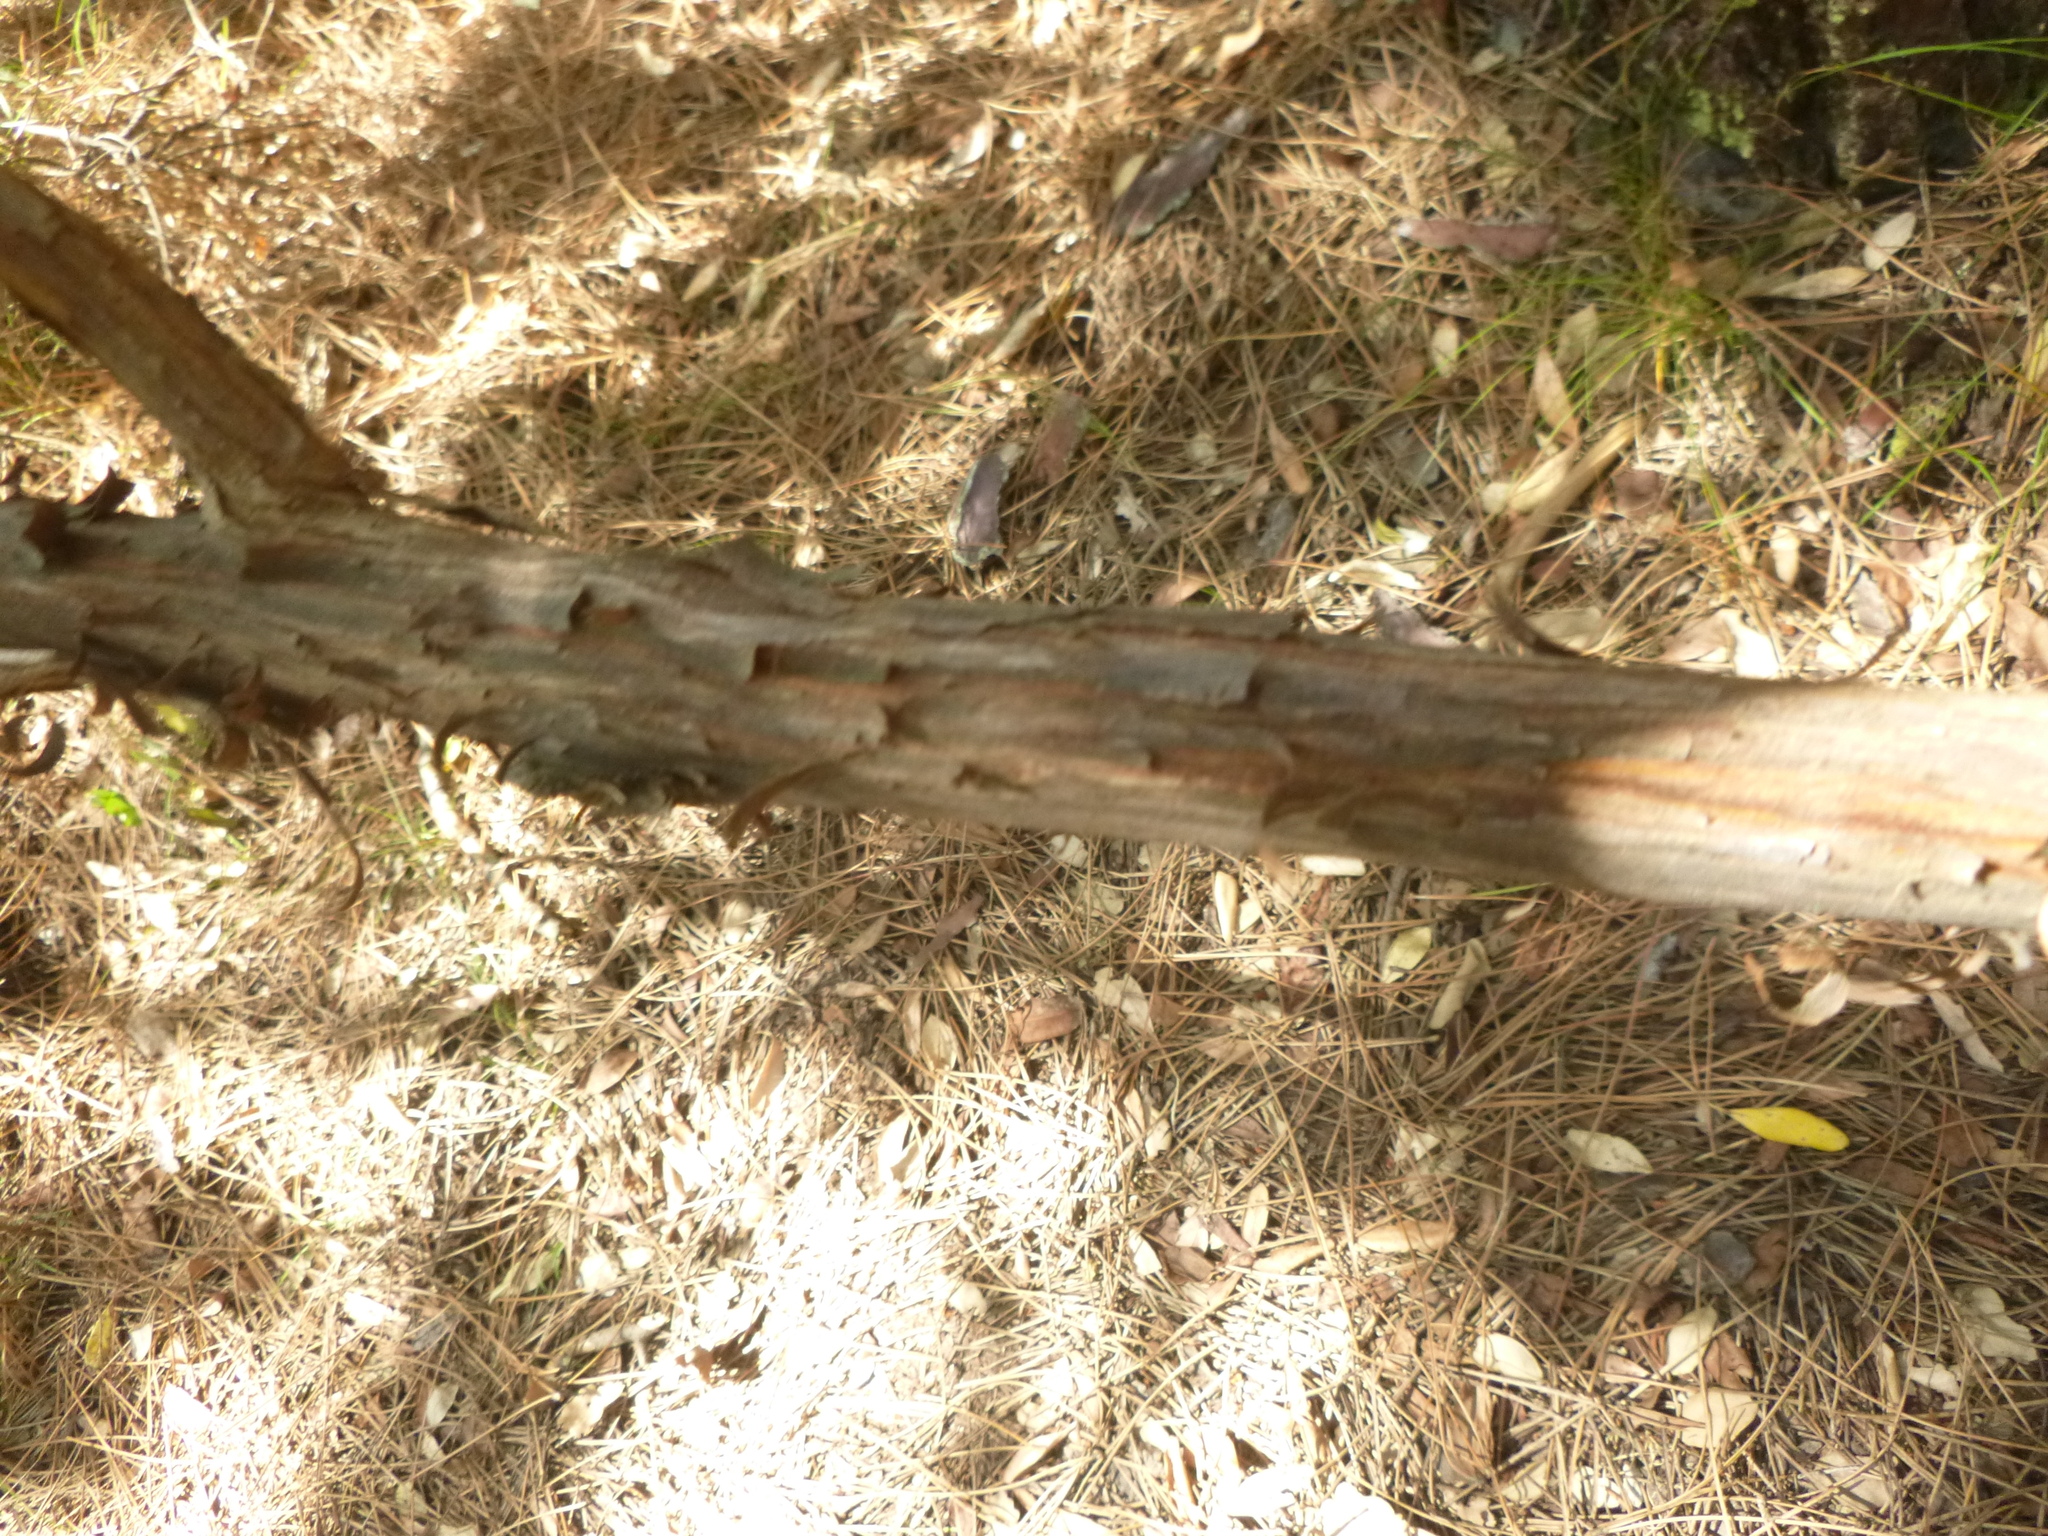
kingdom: Plantae
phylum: Tracheophyta
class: Magnoliopsida
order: Ericales
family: Ericaceae
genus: Arbutus
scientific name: Arbutus unedo
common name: Strawberry-tree
